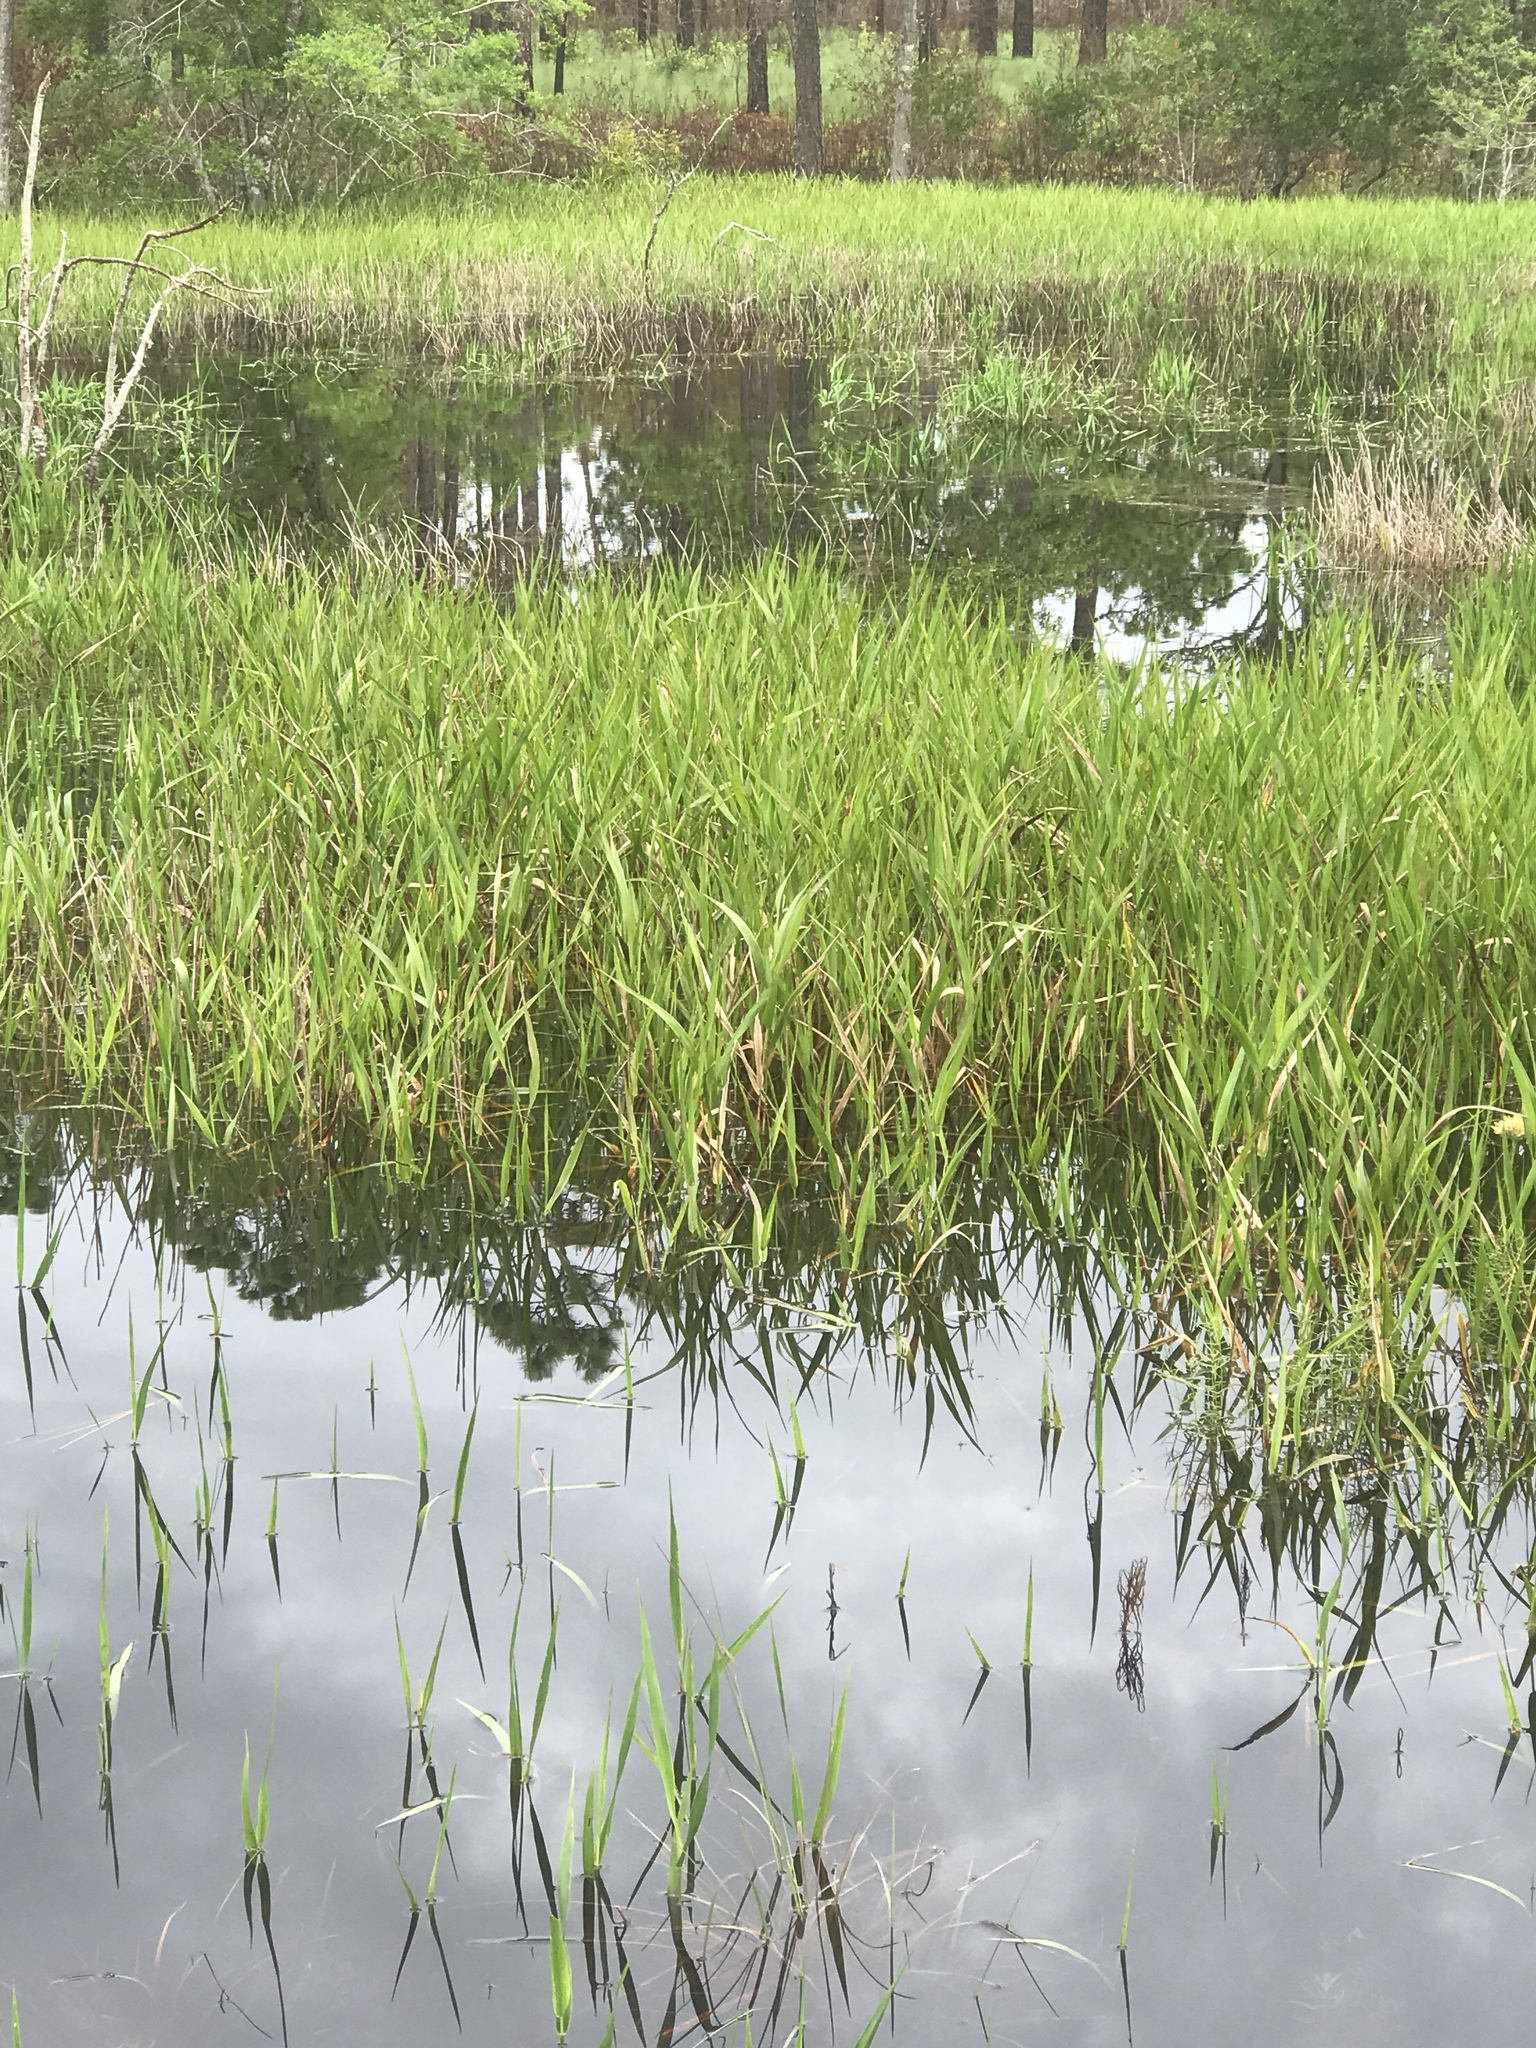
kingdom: Plantae
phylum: Tracheophyta
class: Liliopsida
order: Poales
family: Poaceae
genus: Panicum
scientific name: Panicum hemitomon
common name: Maidencane
